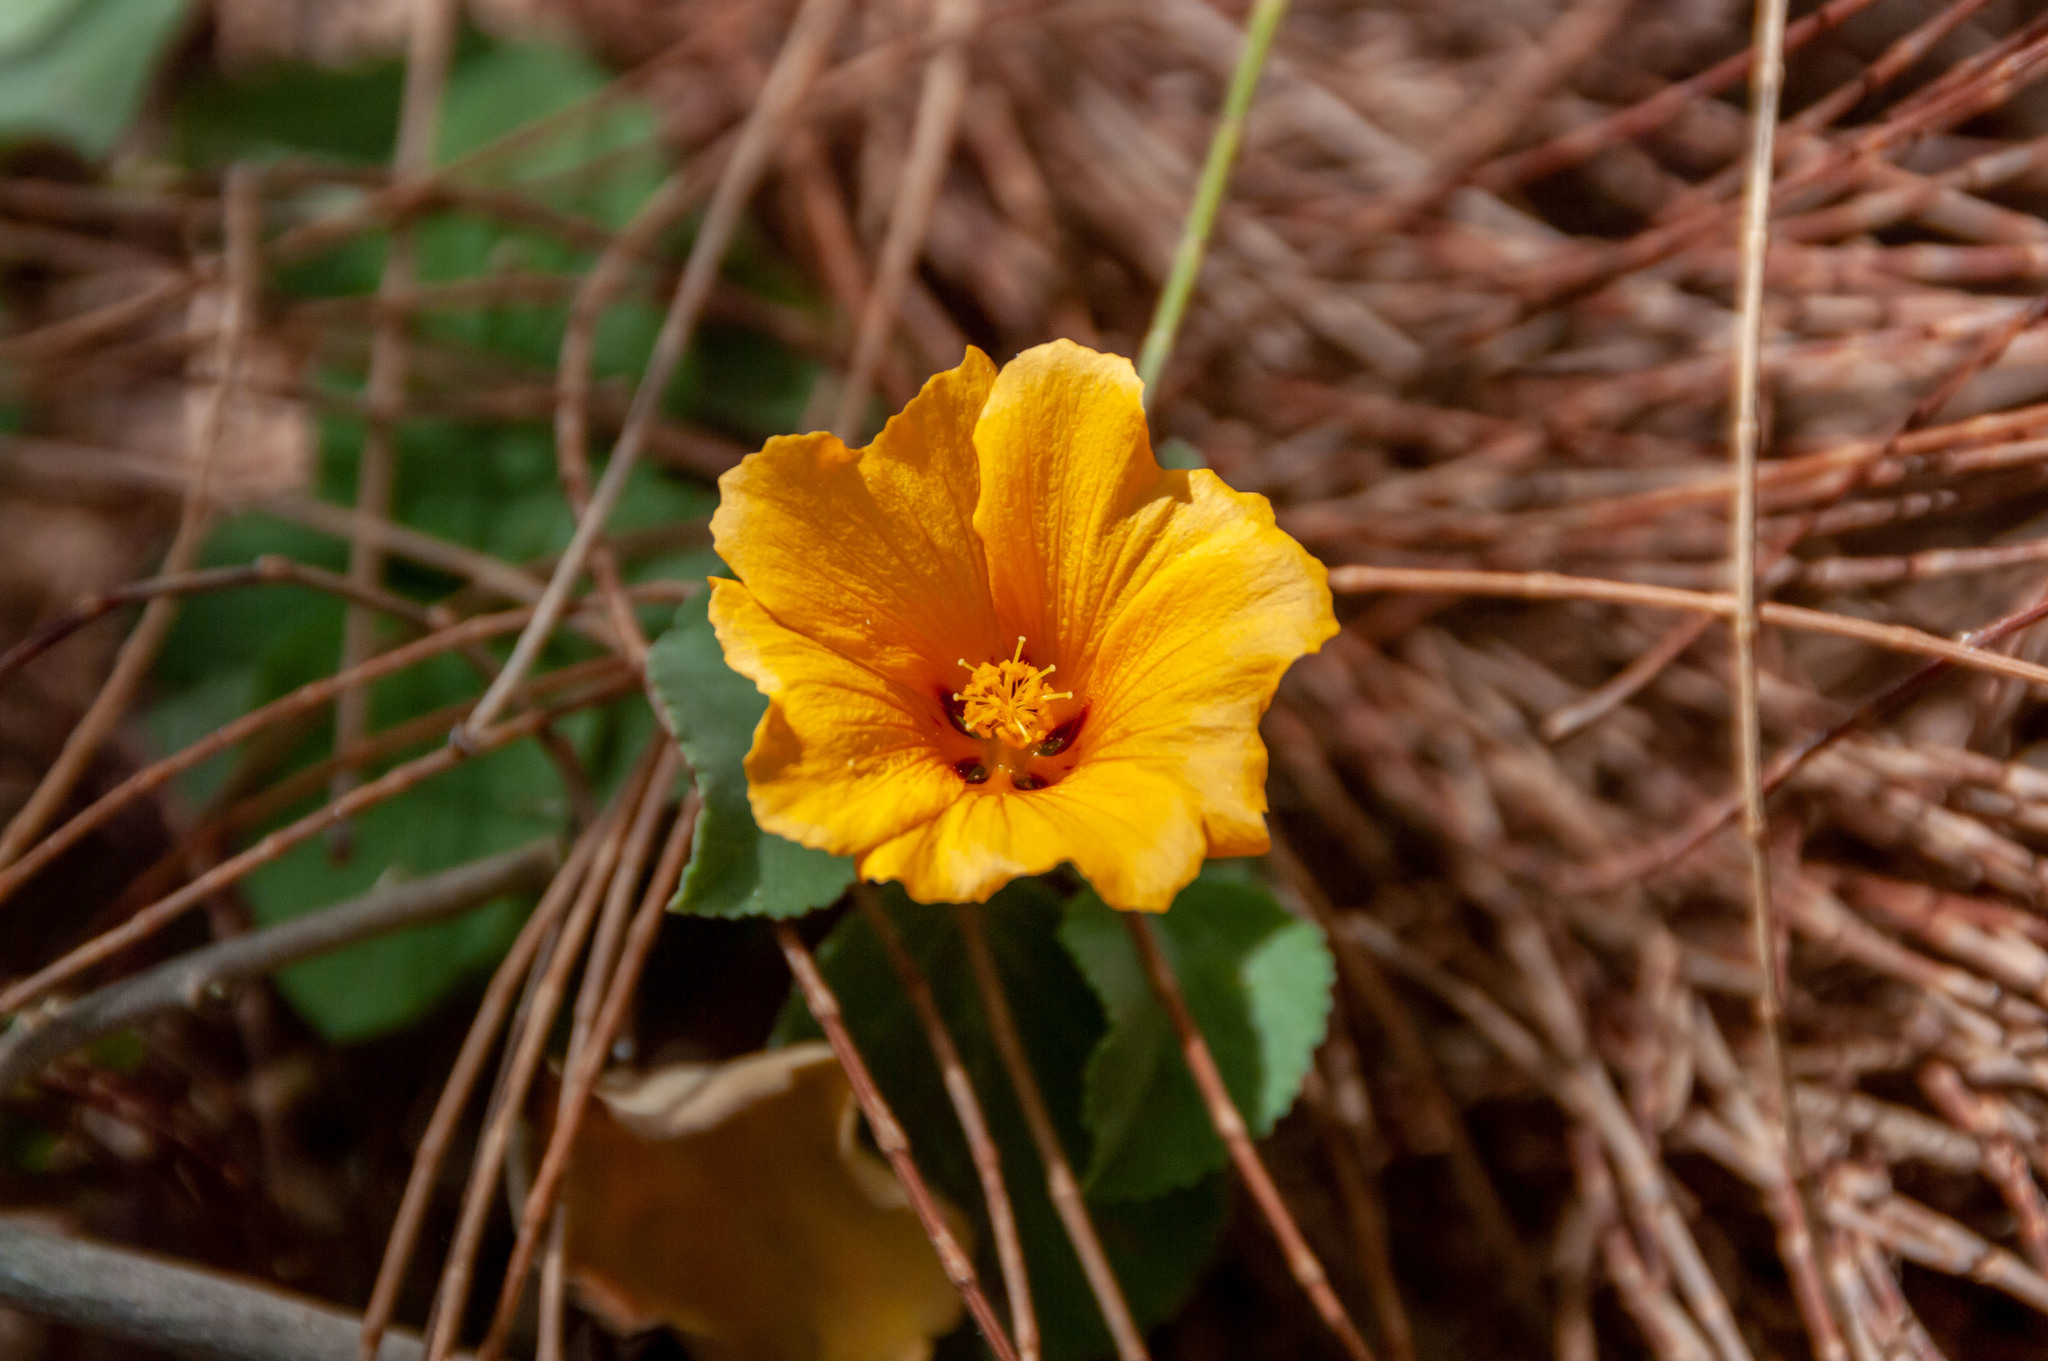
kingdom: Plantae
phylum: Tracheophyta
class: Magnoliopsida
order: Malvales
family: Malvaceae
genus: Sida
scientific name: Sida fallax
